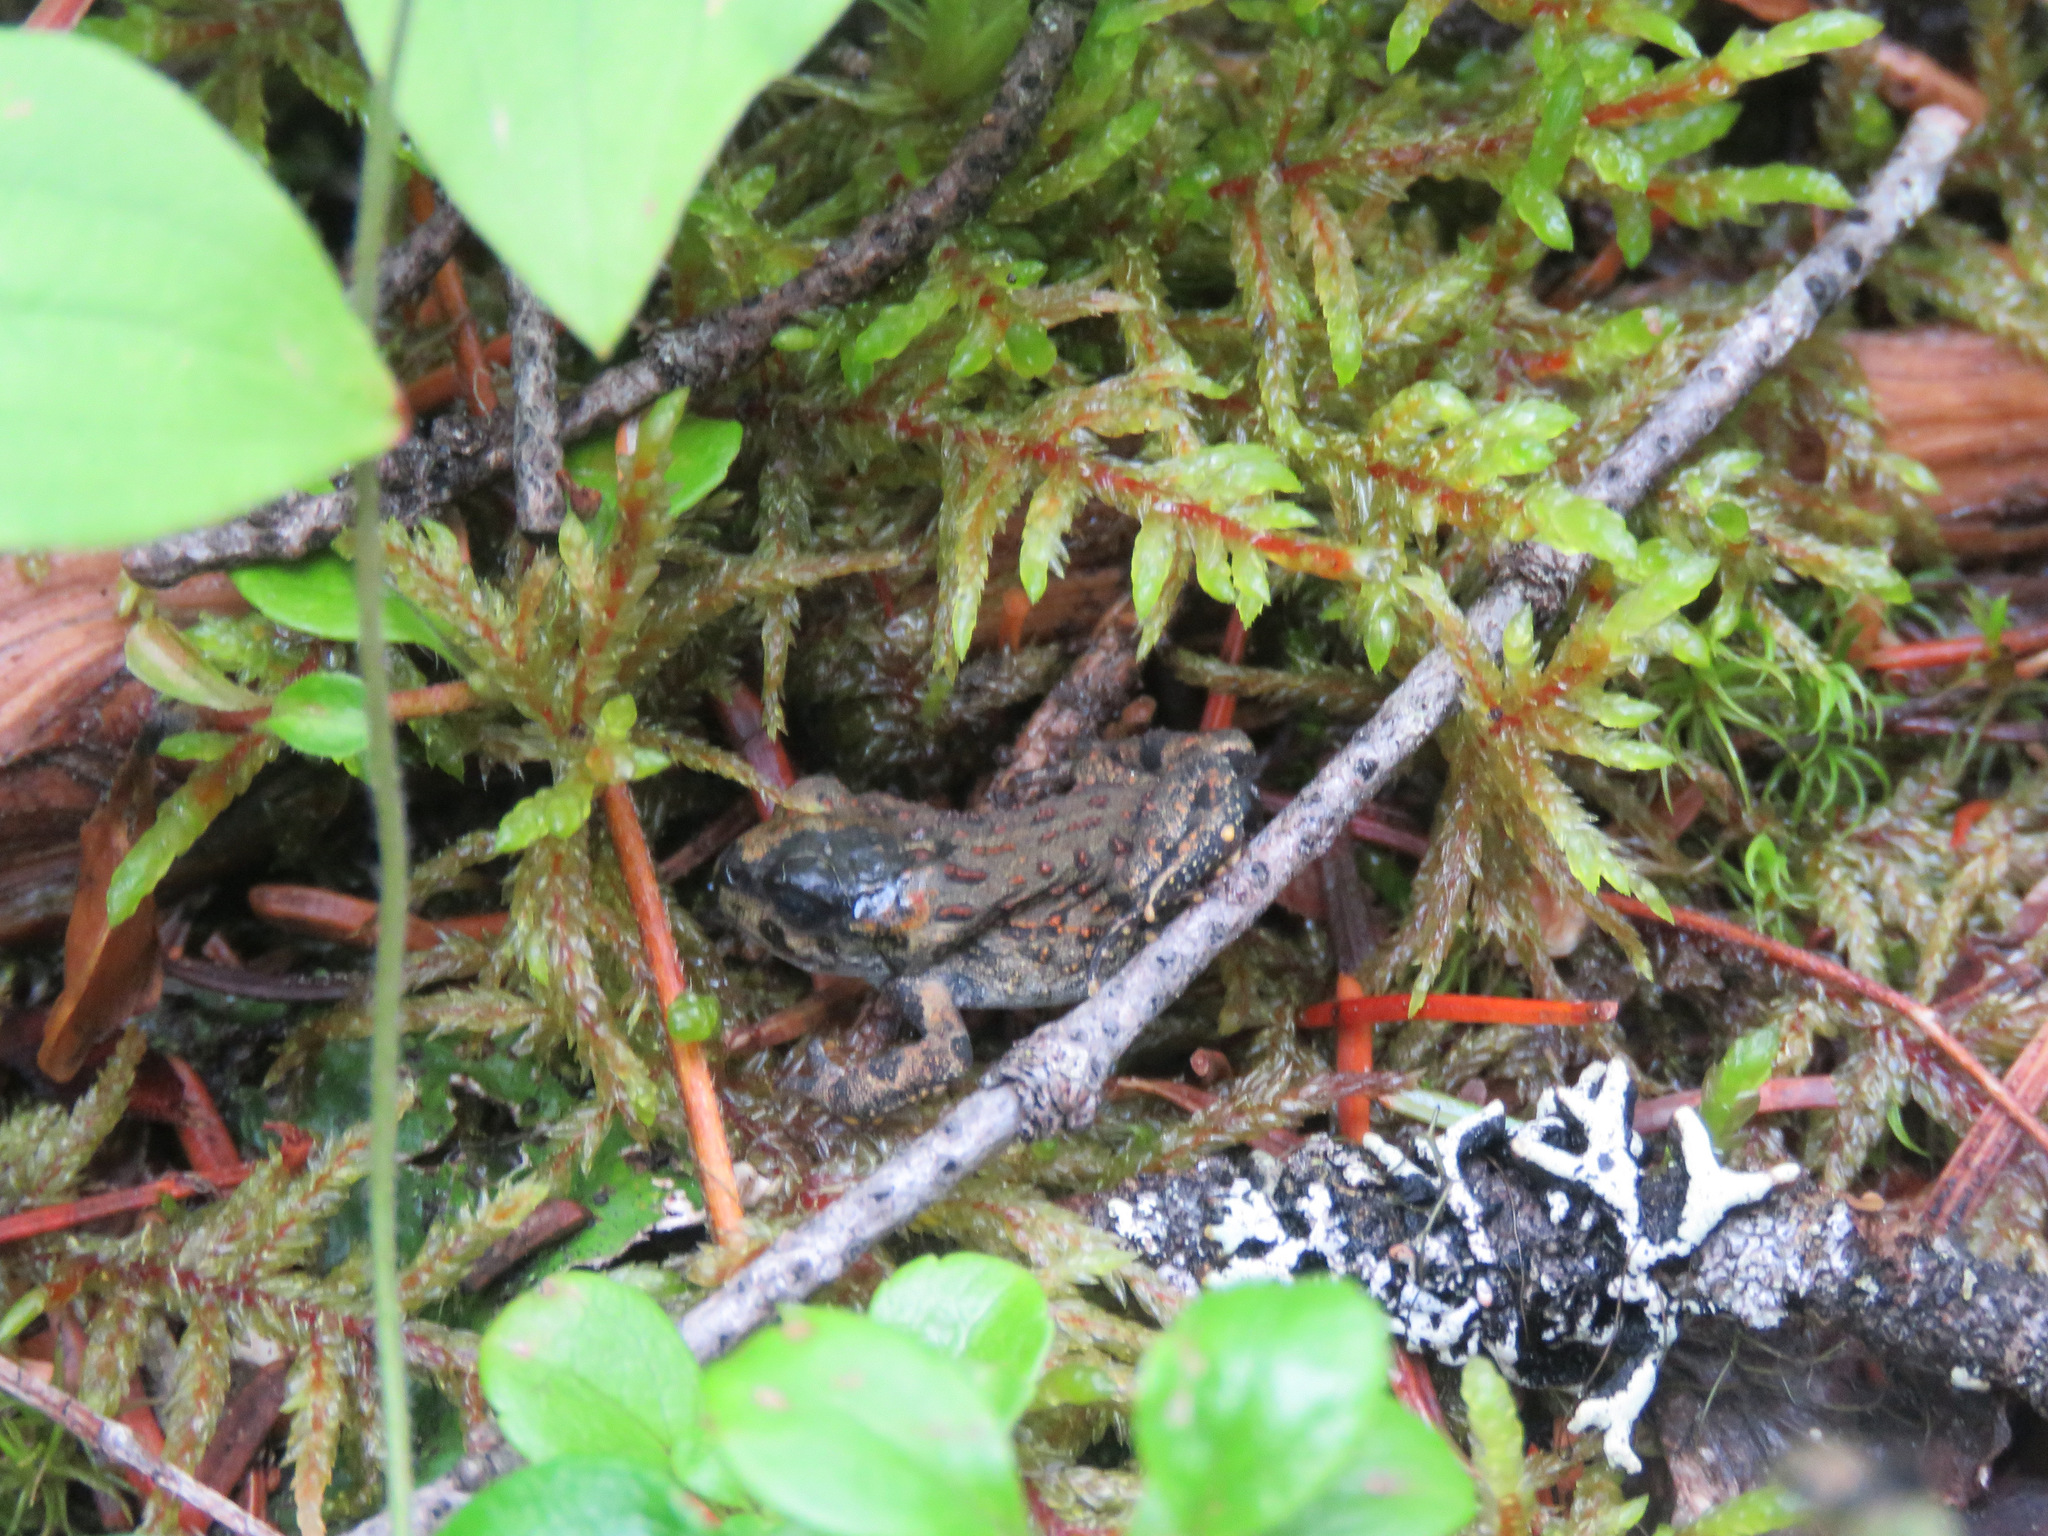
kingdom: Animalia
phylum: Chordata
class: Amphibia
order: Anura
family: Bufonidae
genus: Anaxyrus
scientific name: Anaxyrus boreas
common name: Western toad
